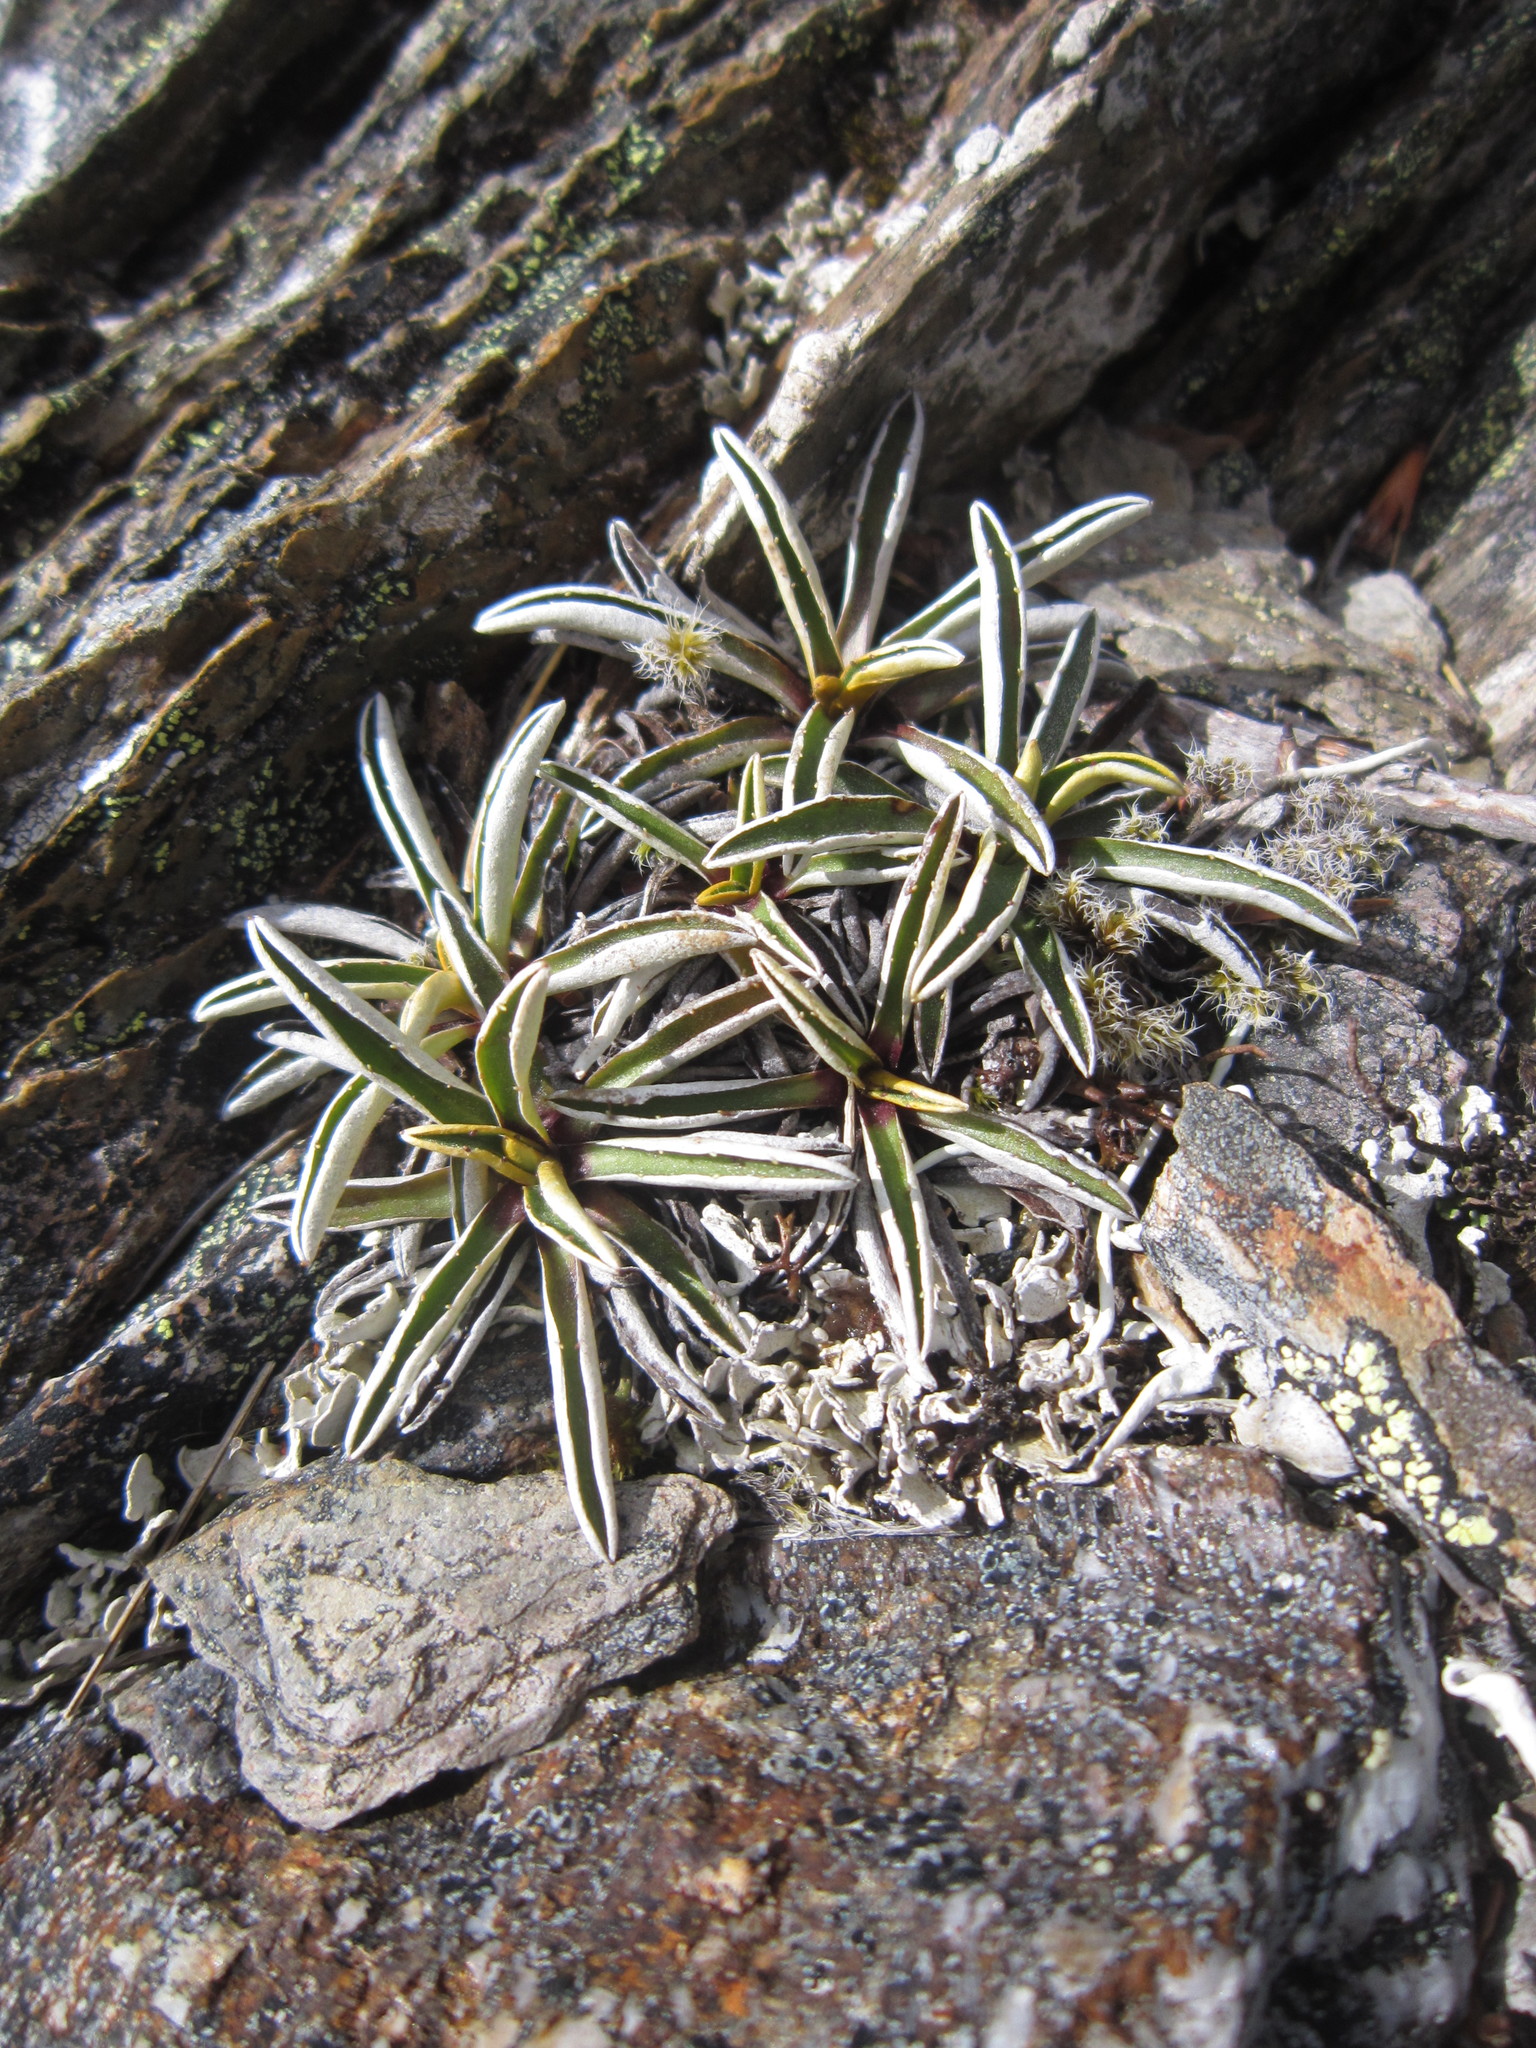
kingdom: Plantae
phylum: Tracheophyta
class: Magnoliopsida
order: Asterales
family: Asteraceae
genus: Celmisia
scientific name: Celmisia hieraciifolia
